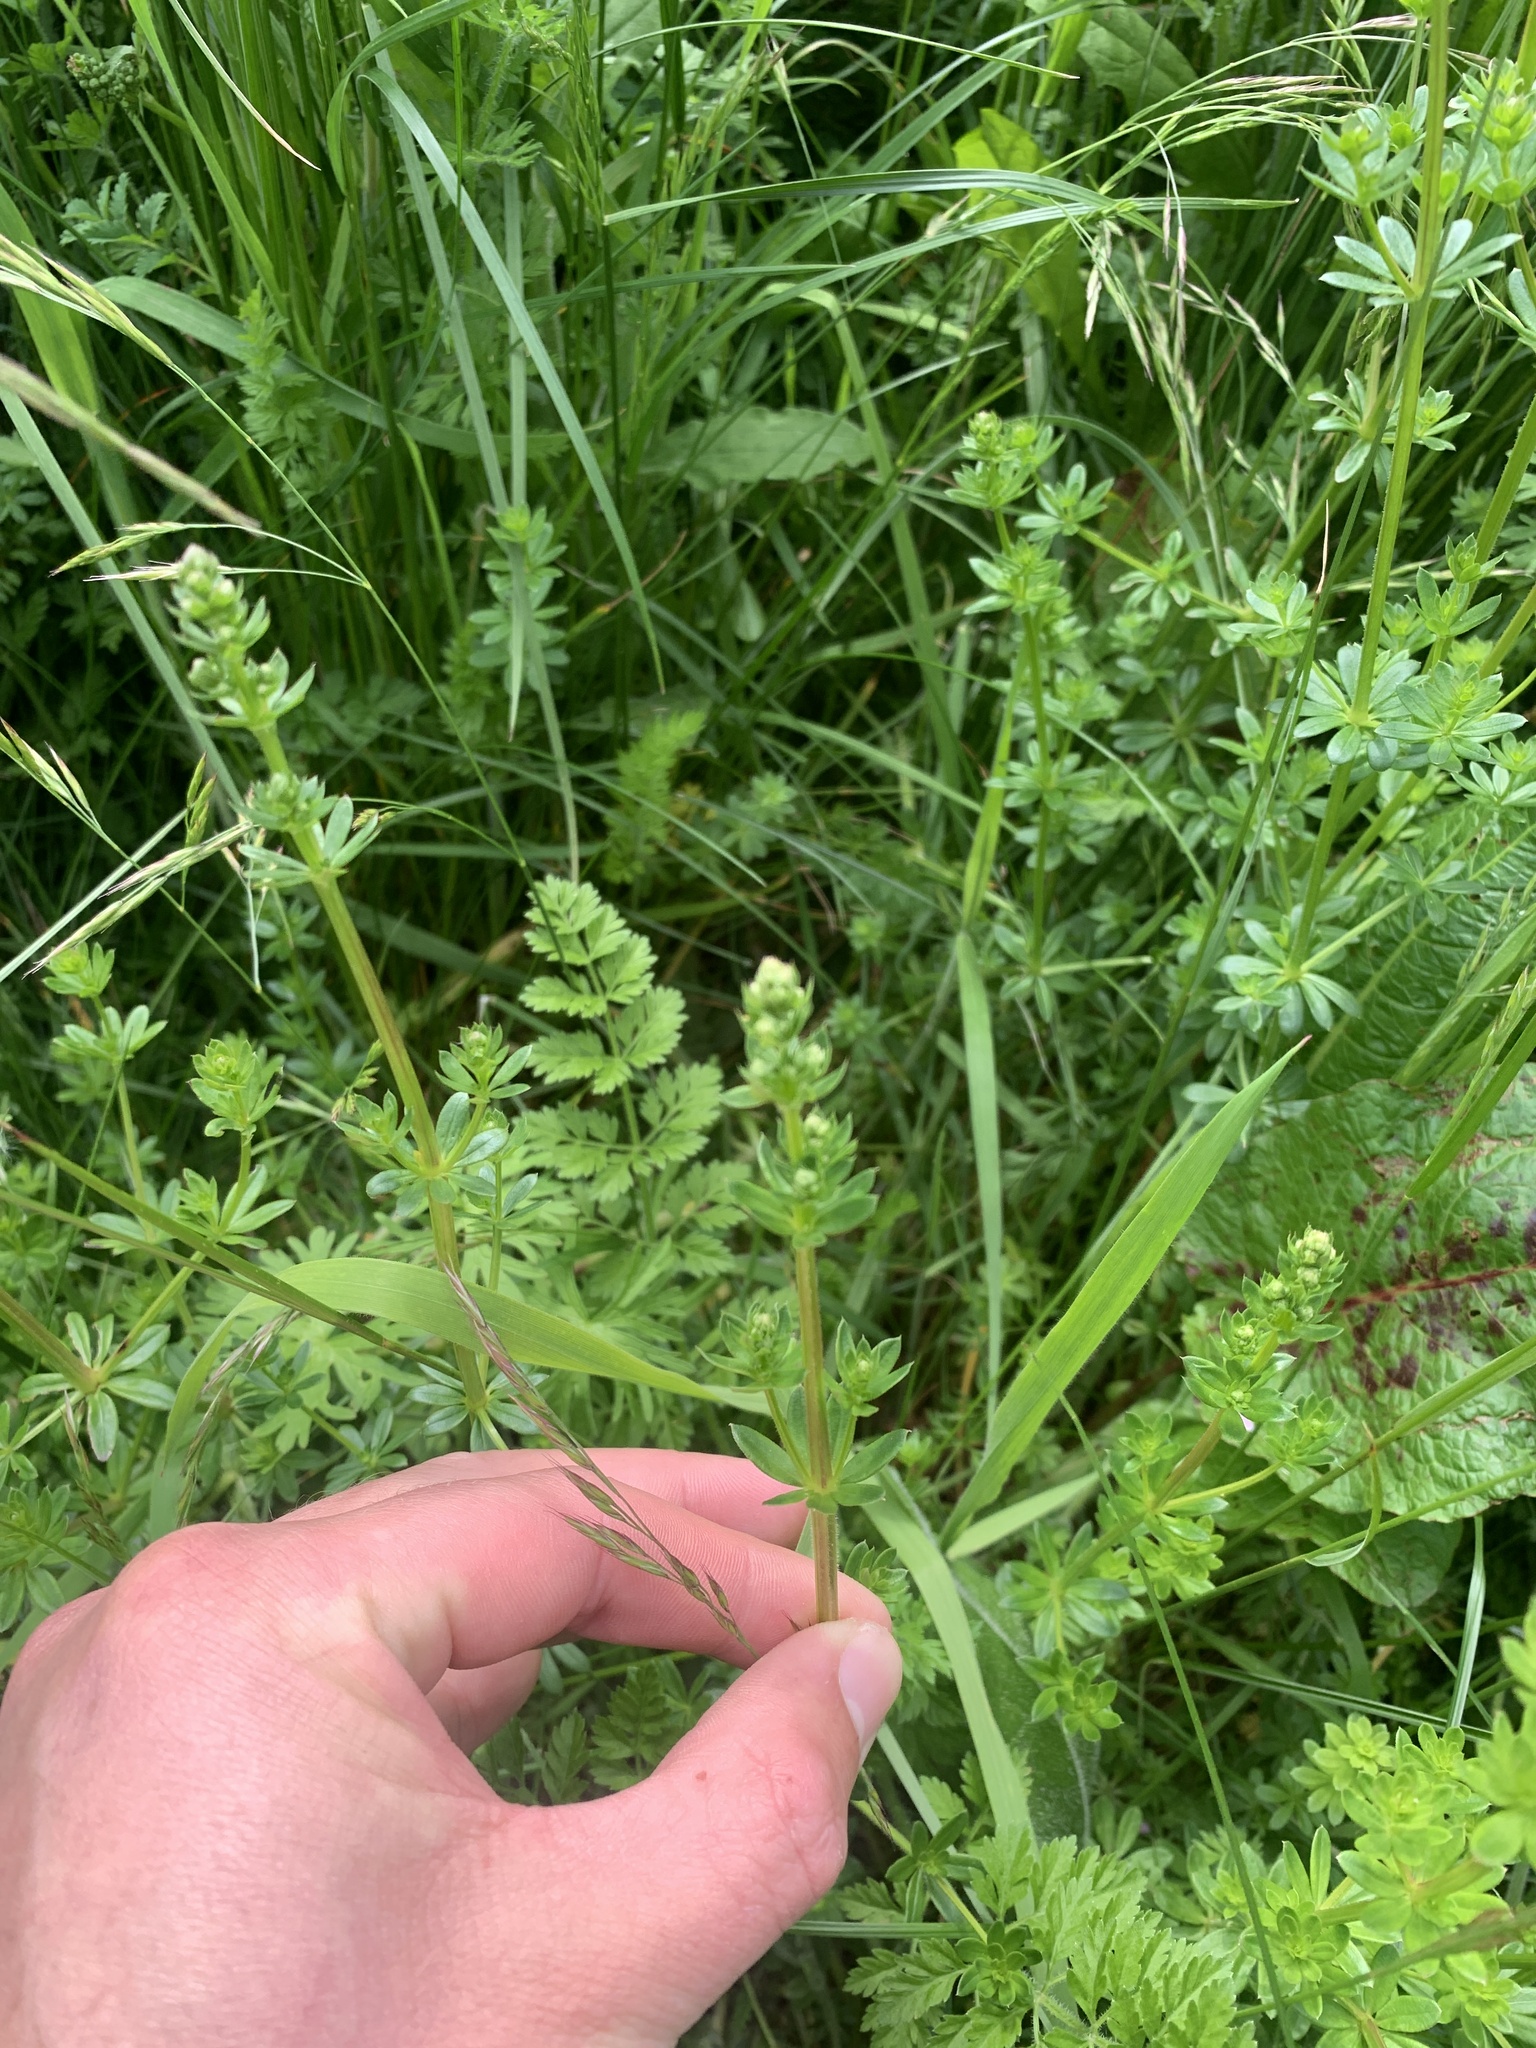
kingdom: Plantae
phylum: Tracheophyta
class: Magnoliopsida
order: Gentianales
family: Rubiaceae
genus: Galium
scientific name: Galium album
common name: White bedstraw
